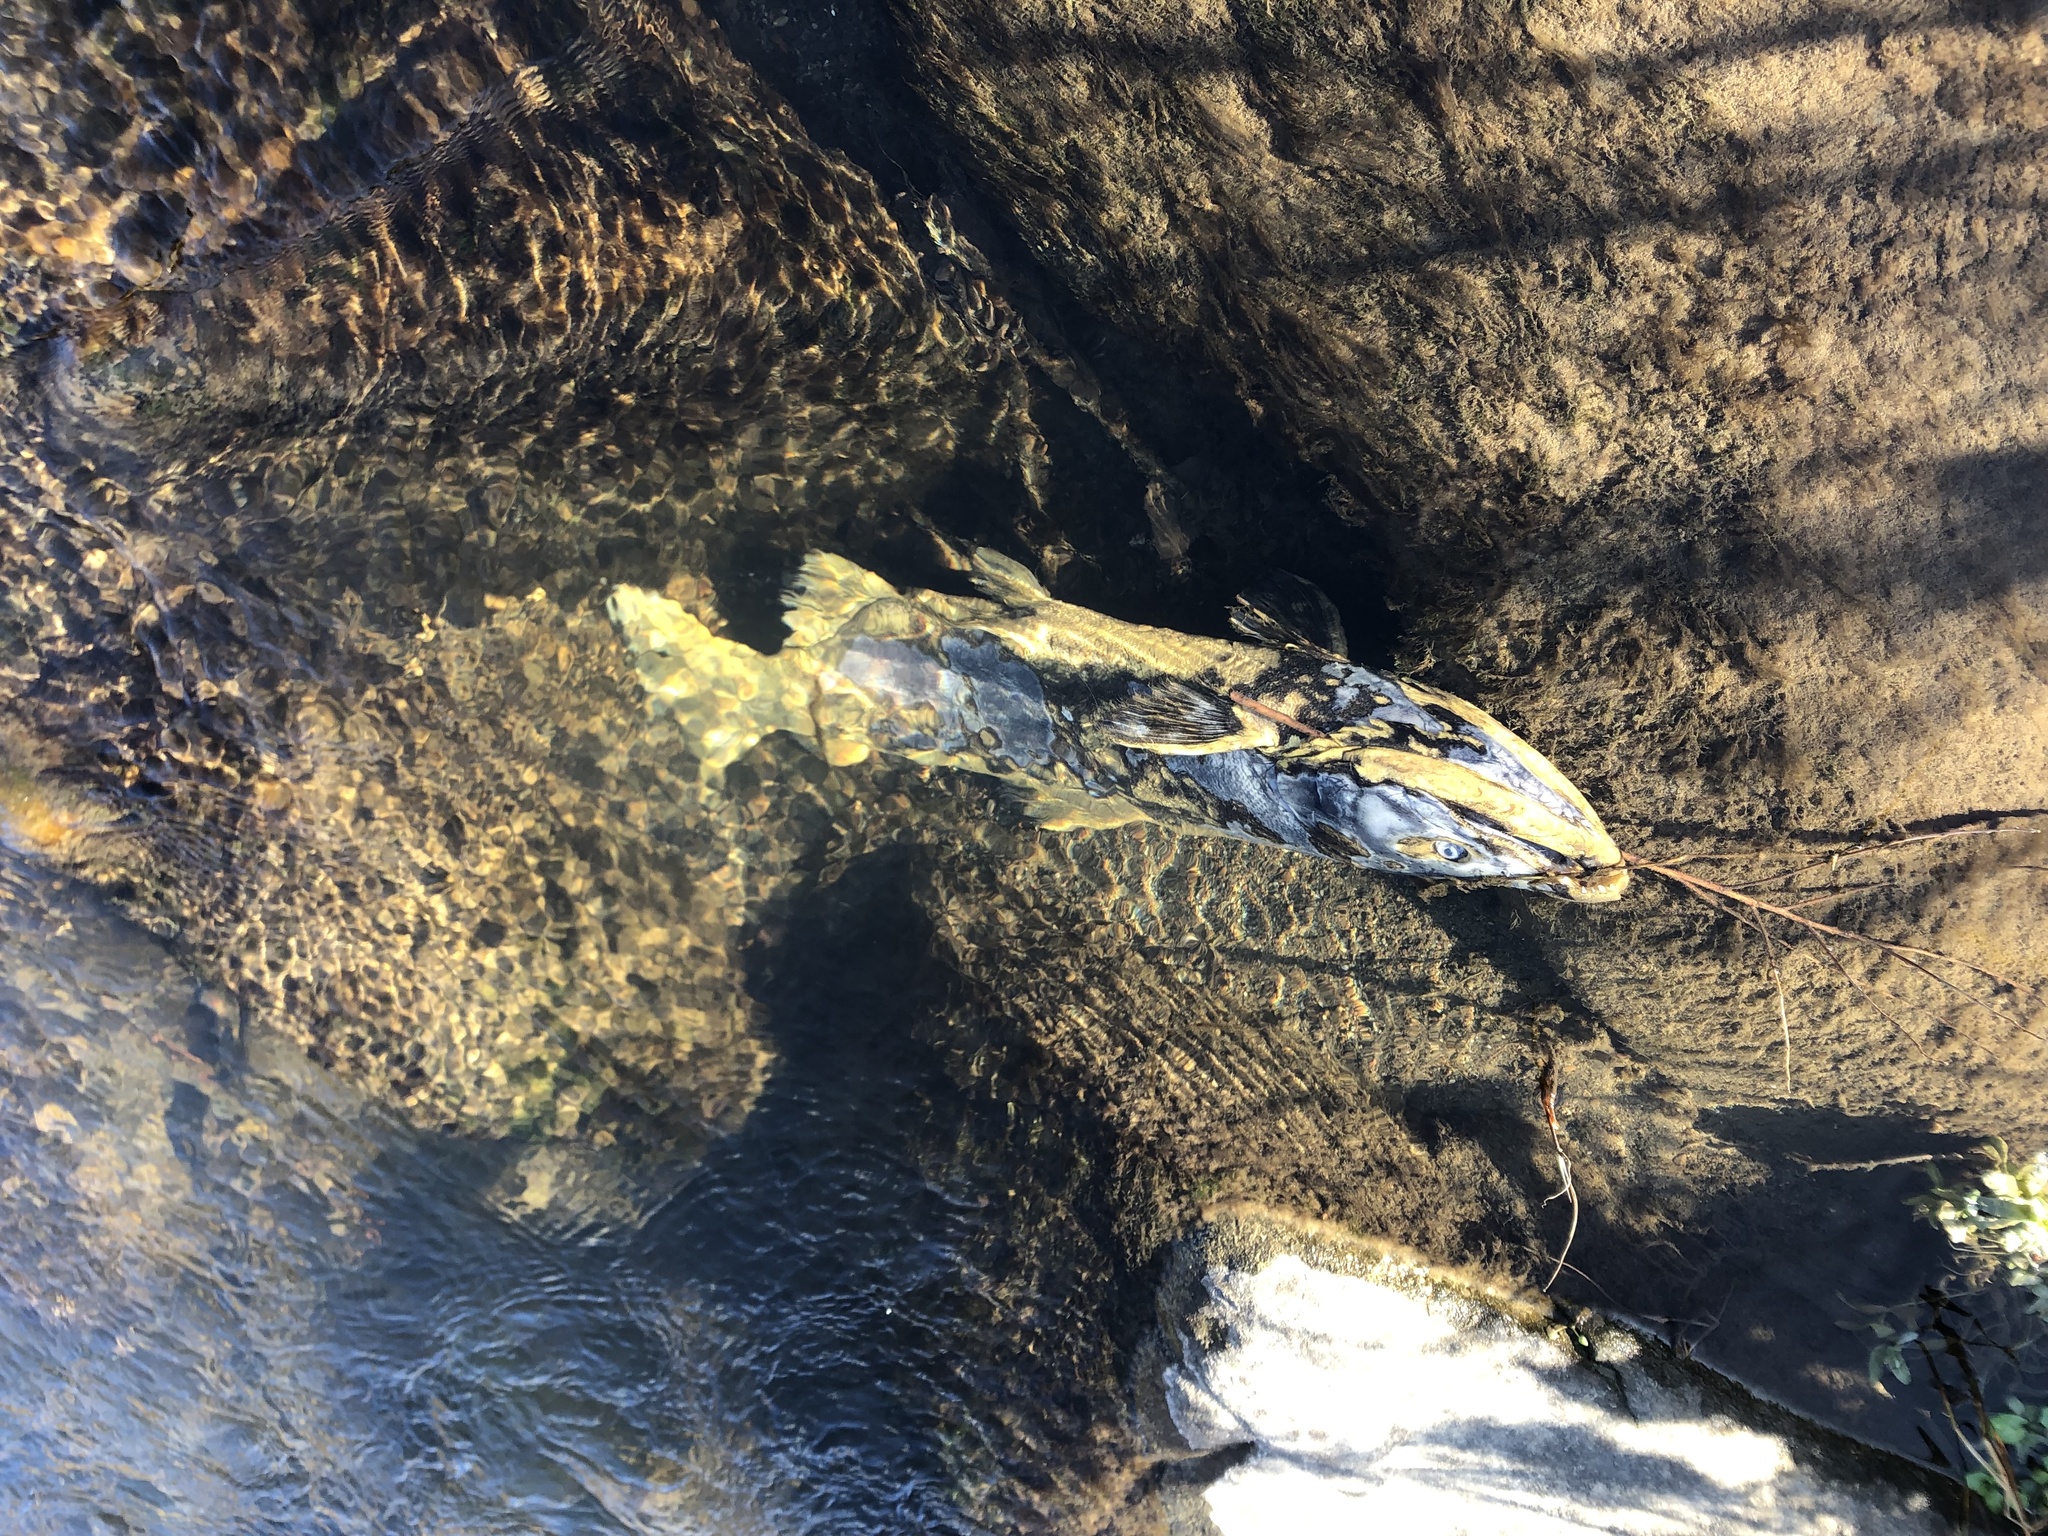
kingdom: Animalia
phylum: Chordata
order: Salmoniformes
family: Salmonidae
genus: Oncorhynchus
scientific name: Oncorhynchus tshawytscha
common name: Chinook salmon
